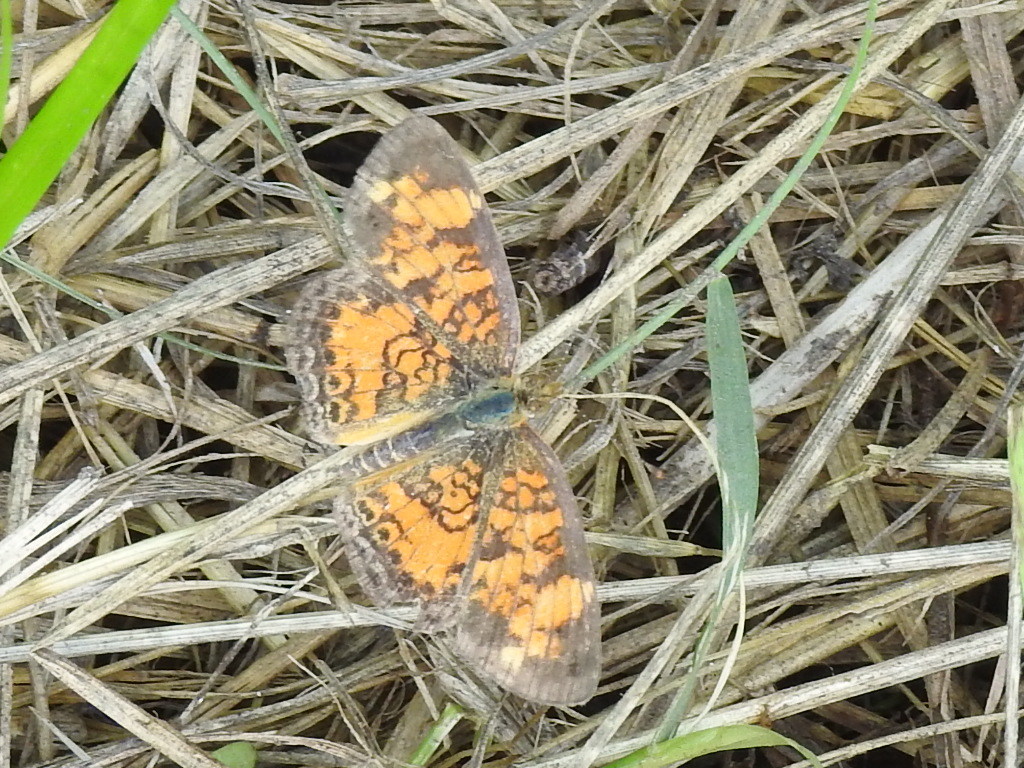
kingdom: Animalia
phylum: Arthropoda
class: Insecta
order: Lepidoptera
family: Nymphalidae
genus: Phyciodes
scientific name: Phyciodes tharos
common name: Pearl crescent
